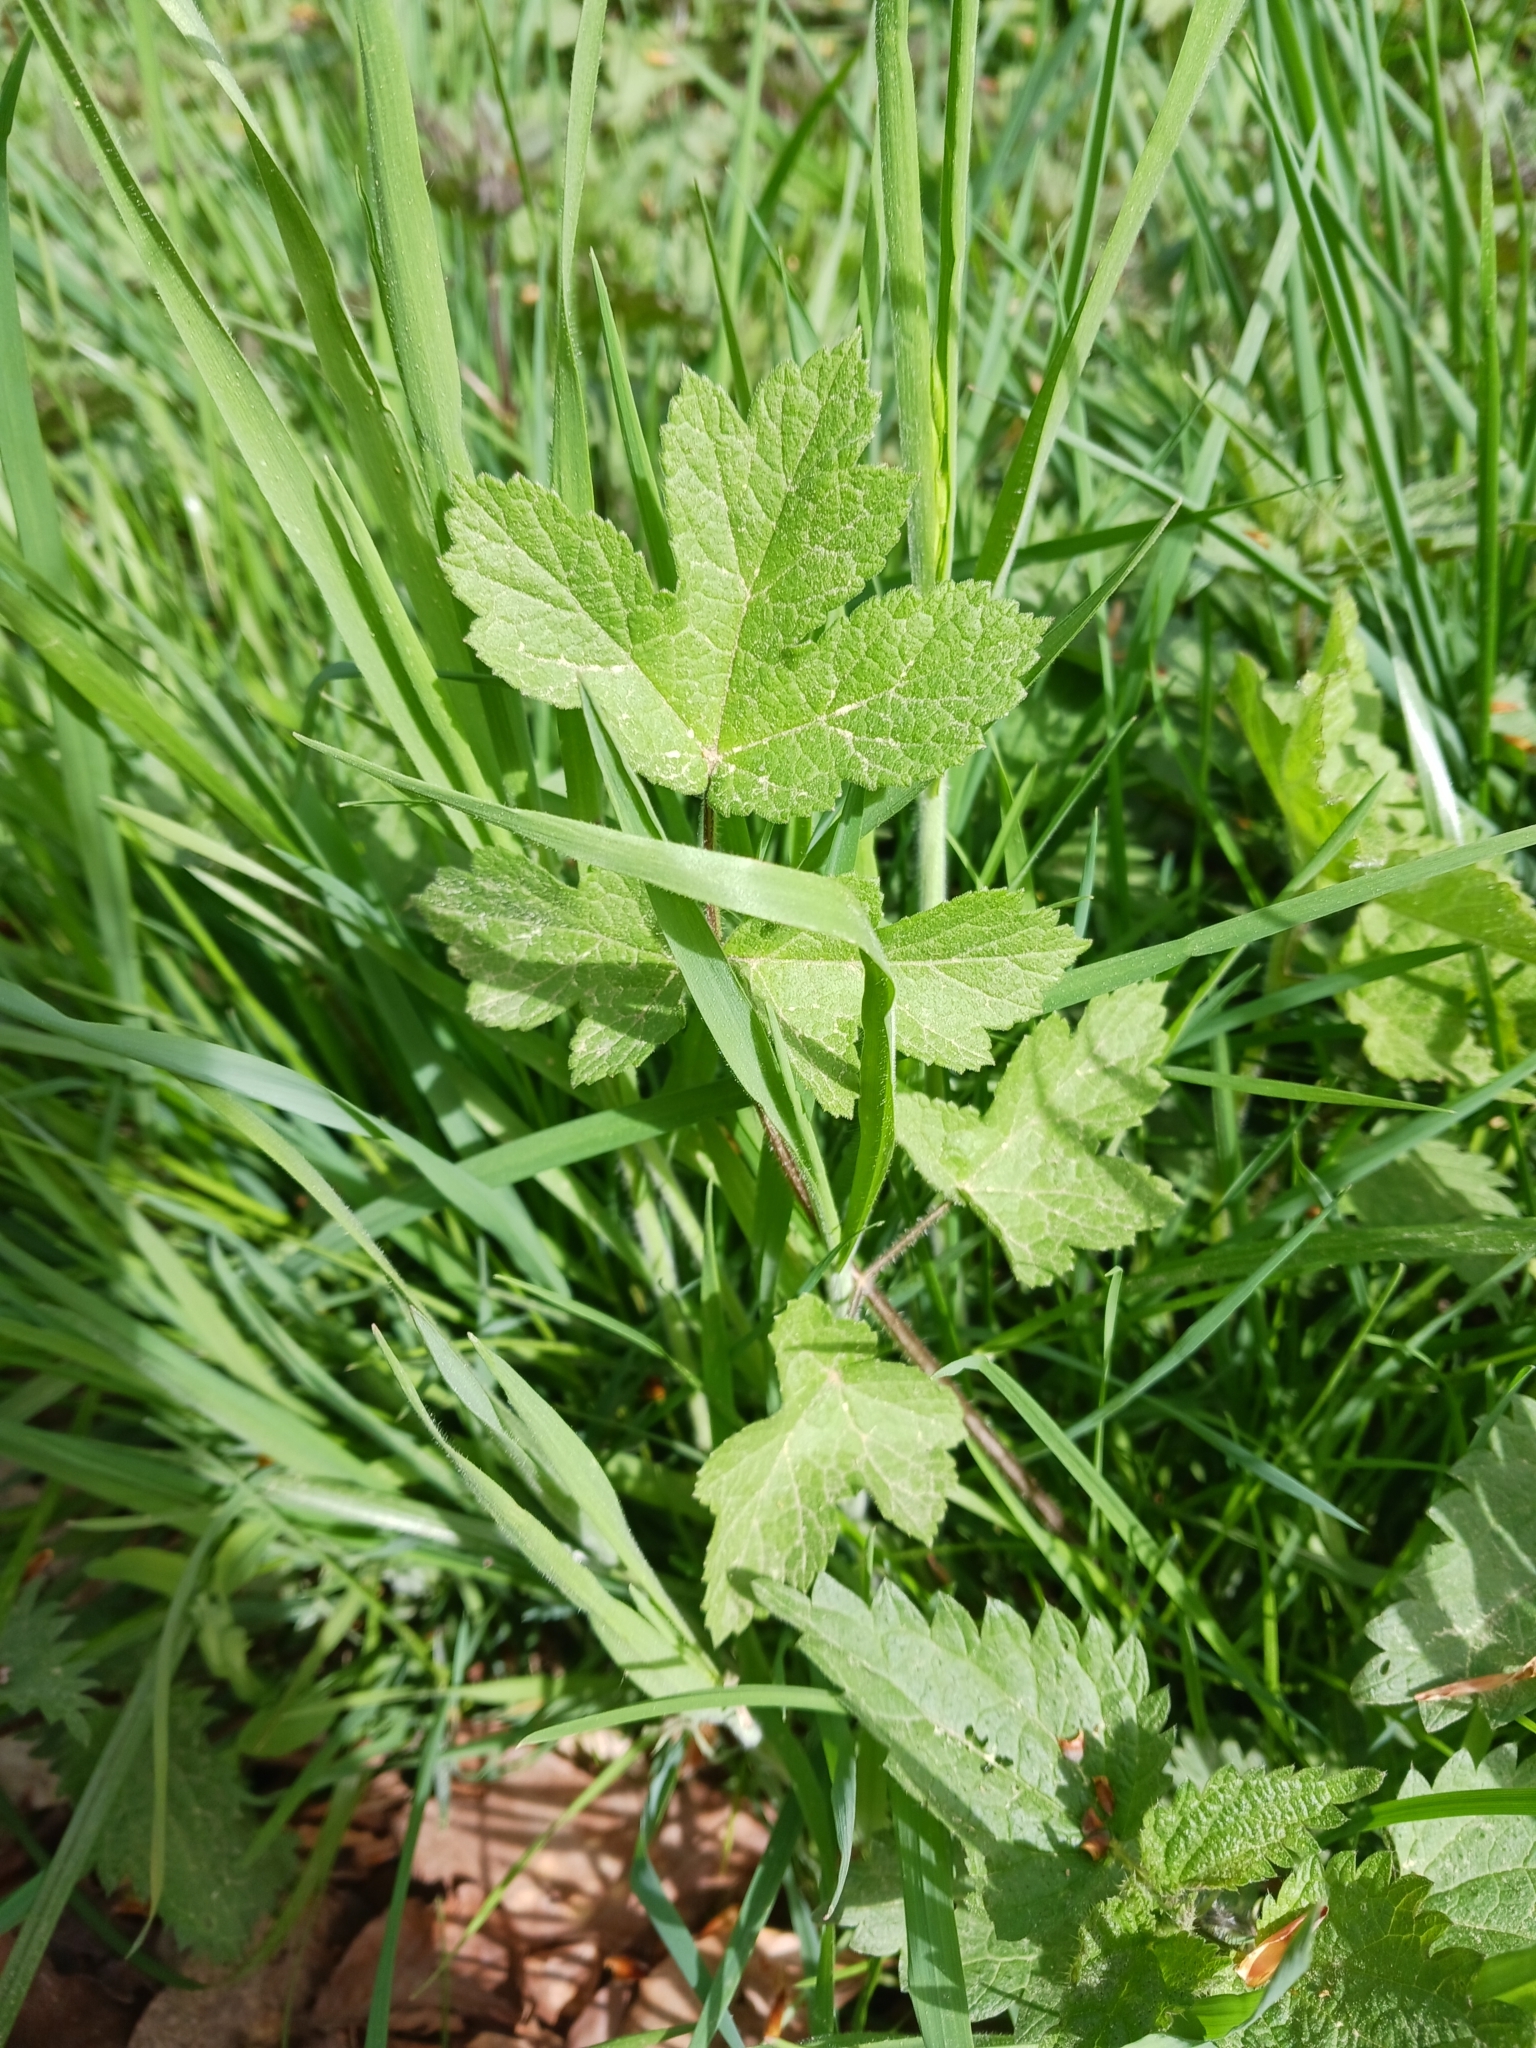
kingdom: Plantae
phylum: Tracheophyta
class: Magnoliopsida
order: Apiales
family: Apiaceae
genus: Heracleum
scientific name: Heracleum sphondylium
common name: Hogweed
